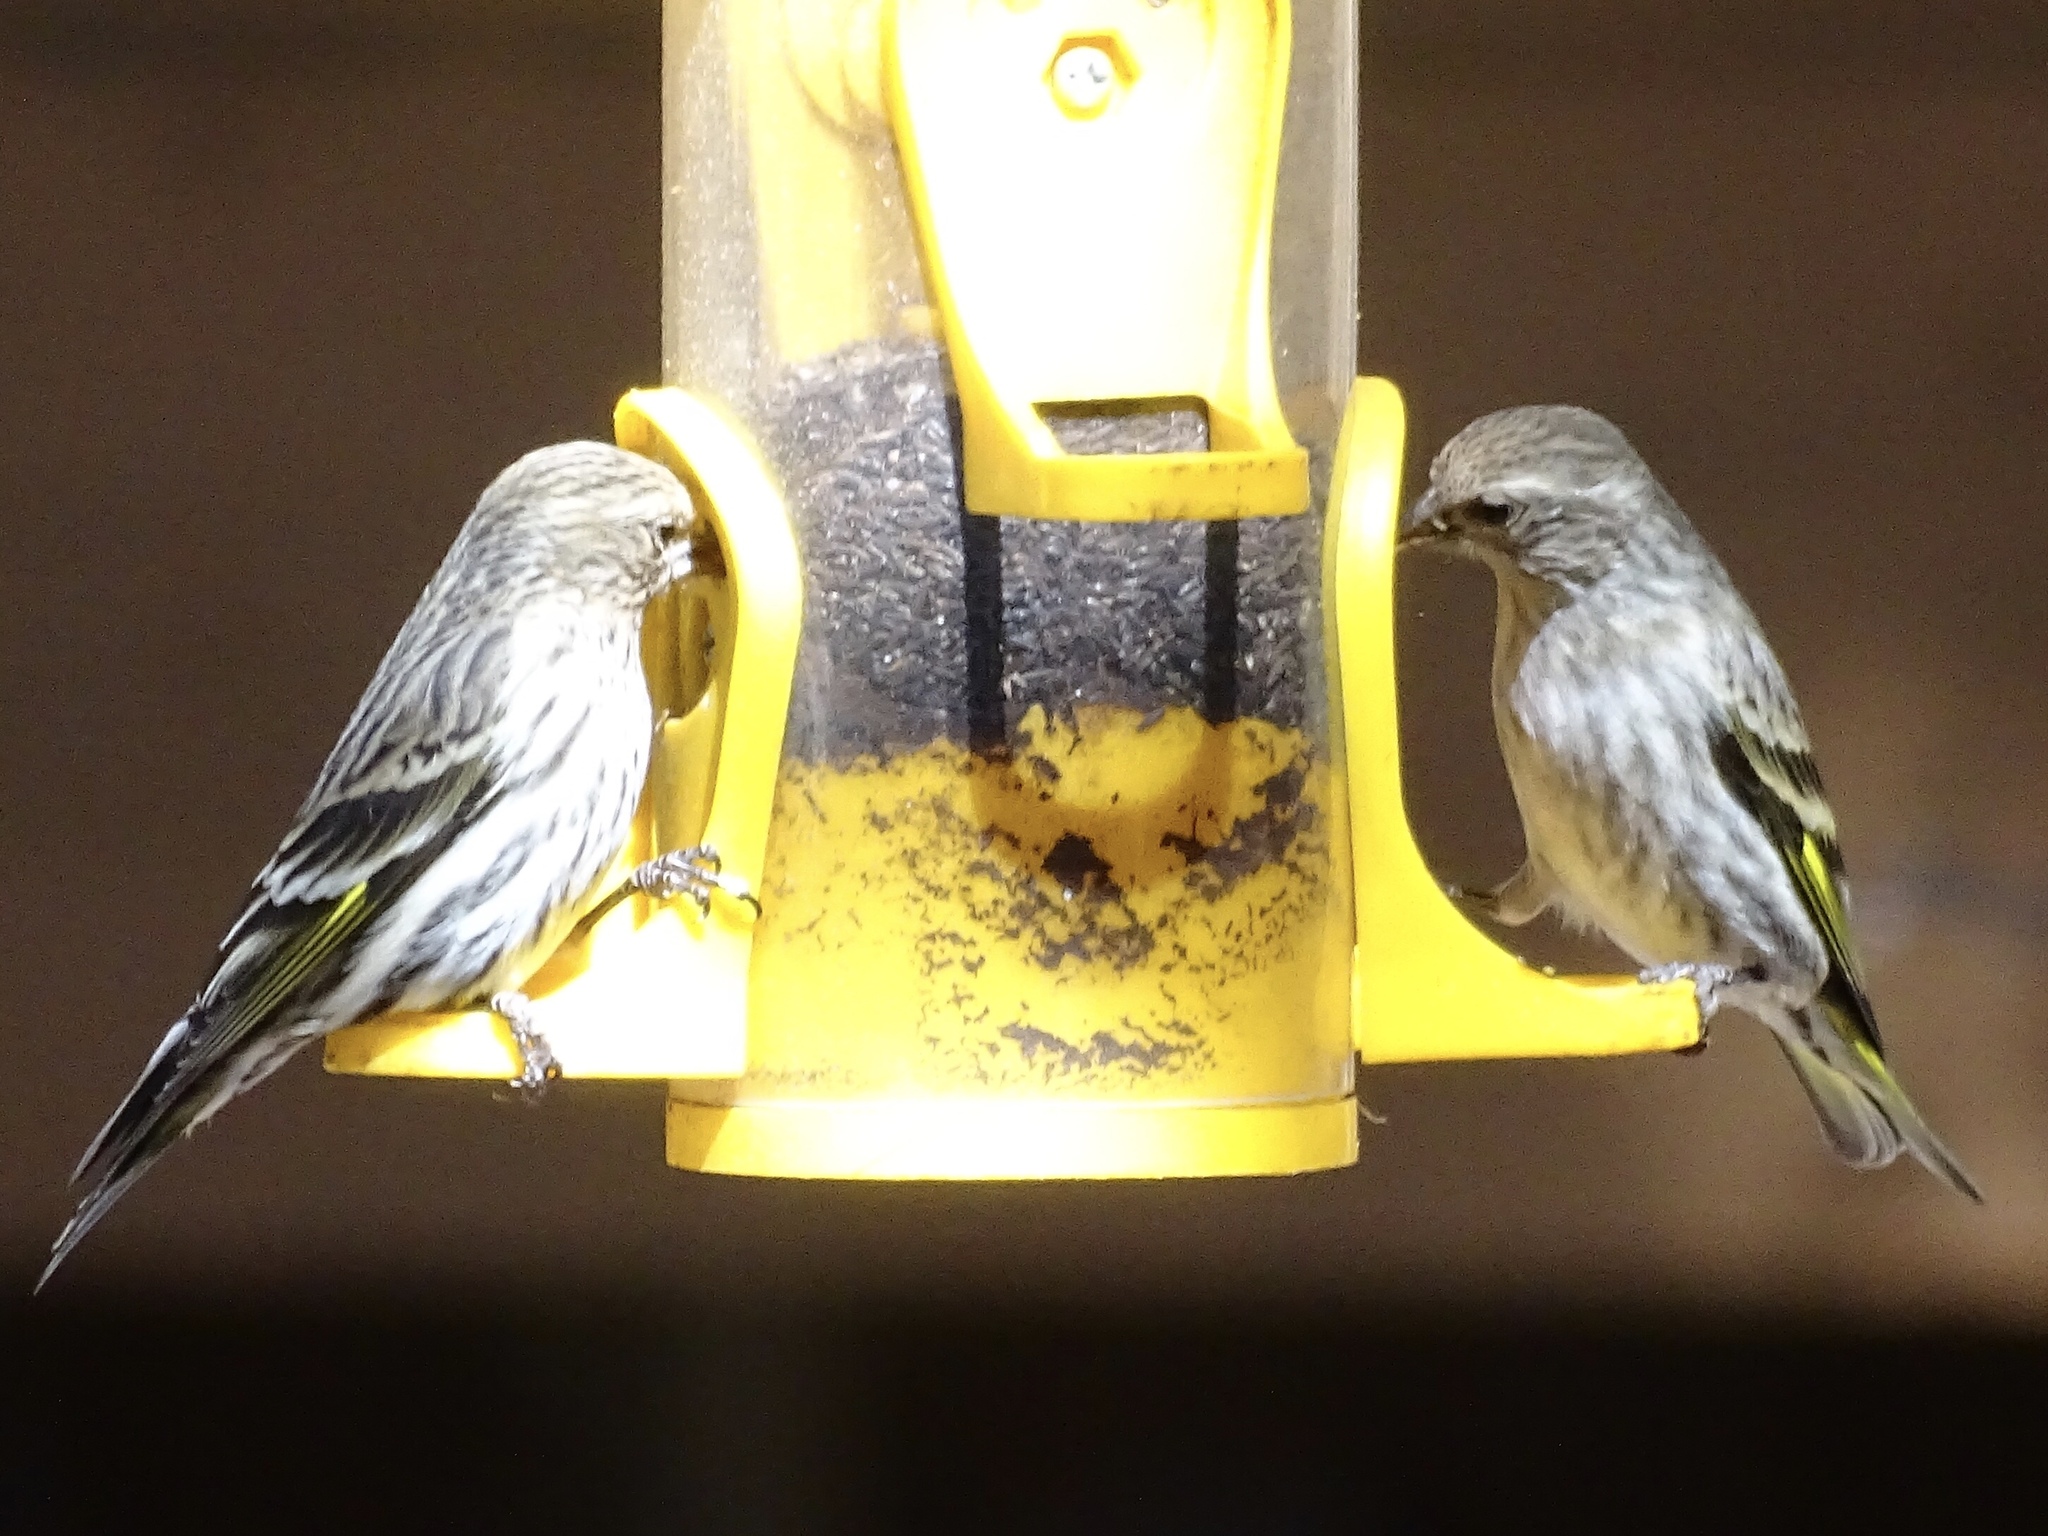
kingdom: Animalia
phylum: Chordata
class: Aves
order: Passeriformes
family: Fringillidae
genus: Spinus
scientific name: Spinus pinus
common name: Pine siskin
